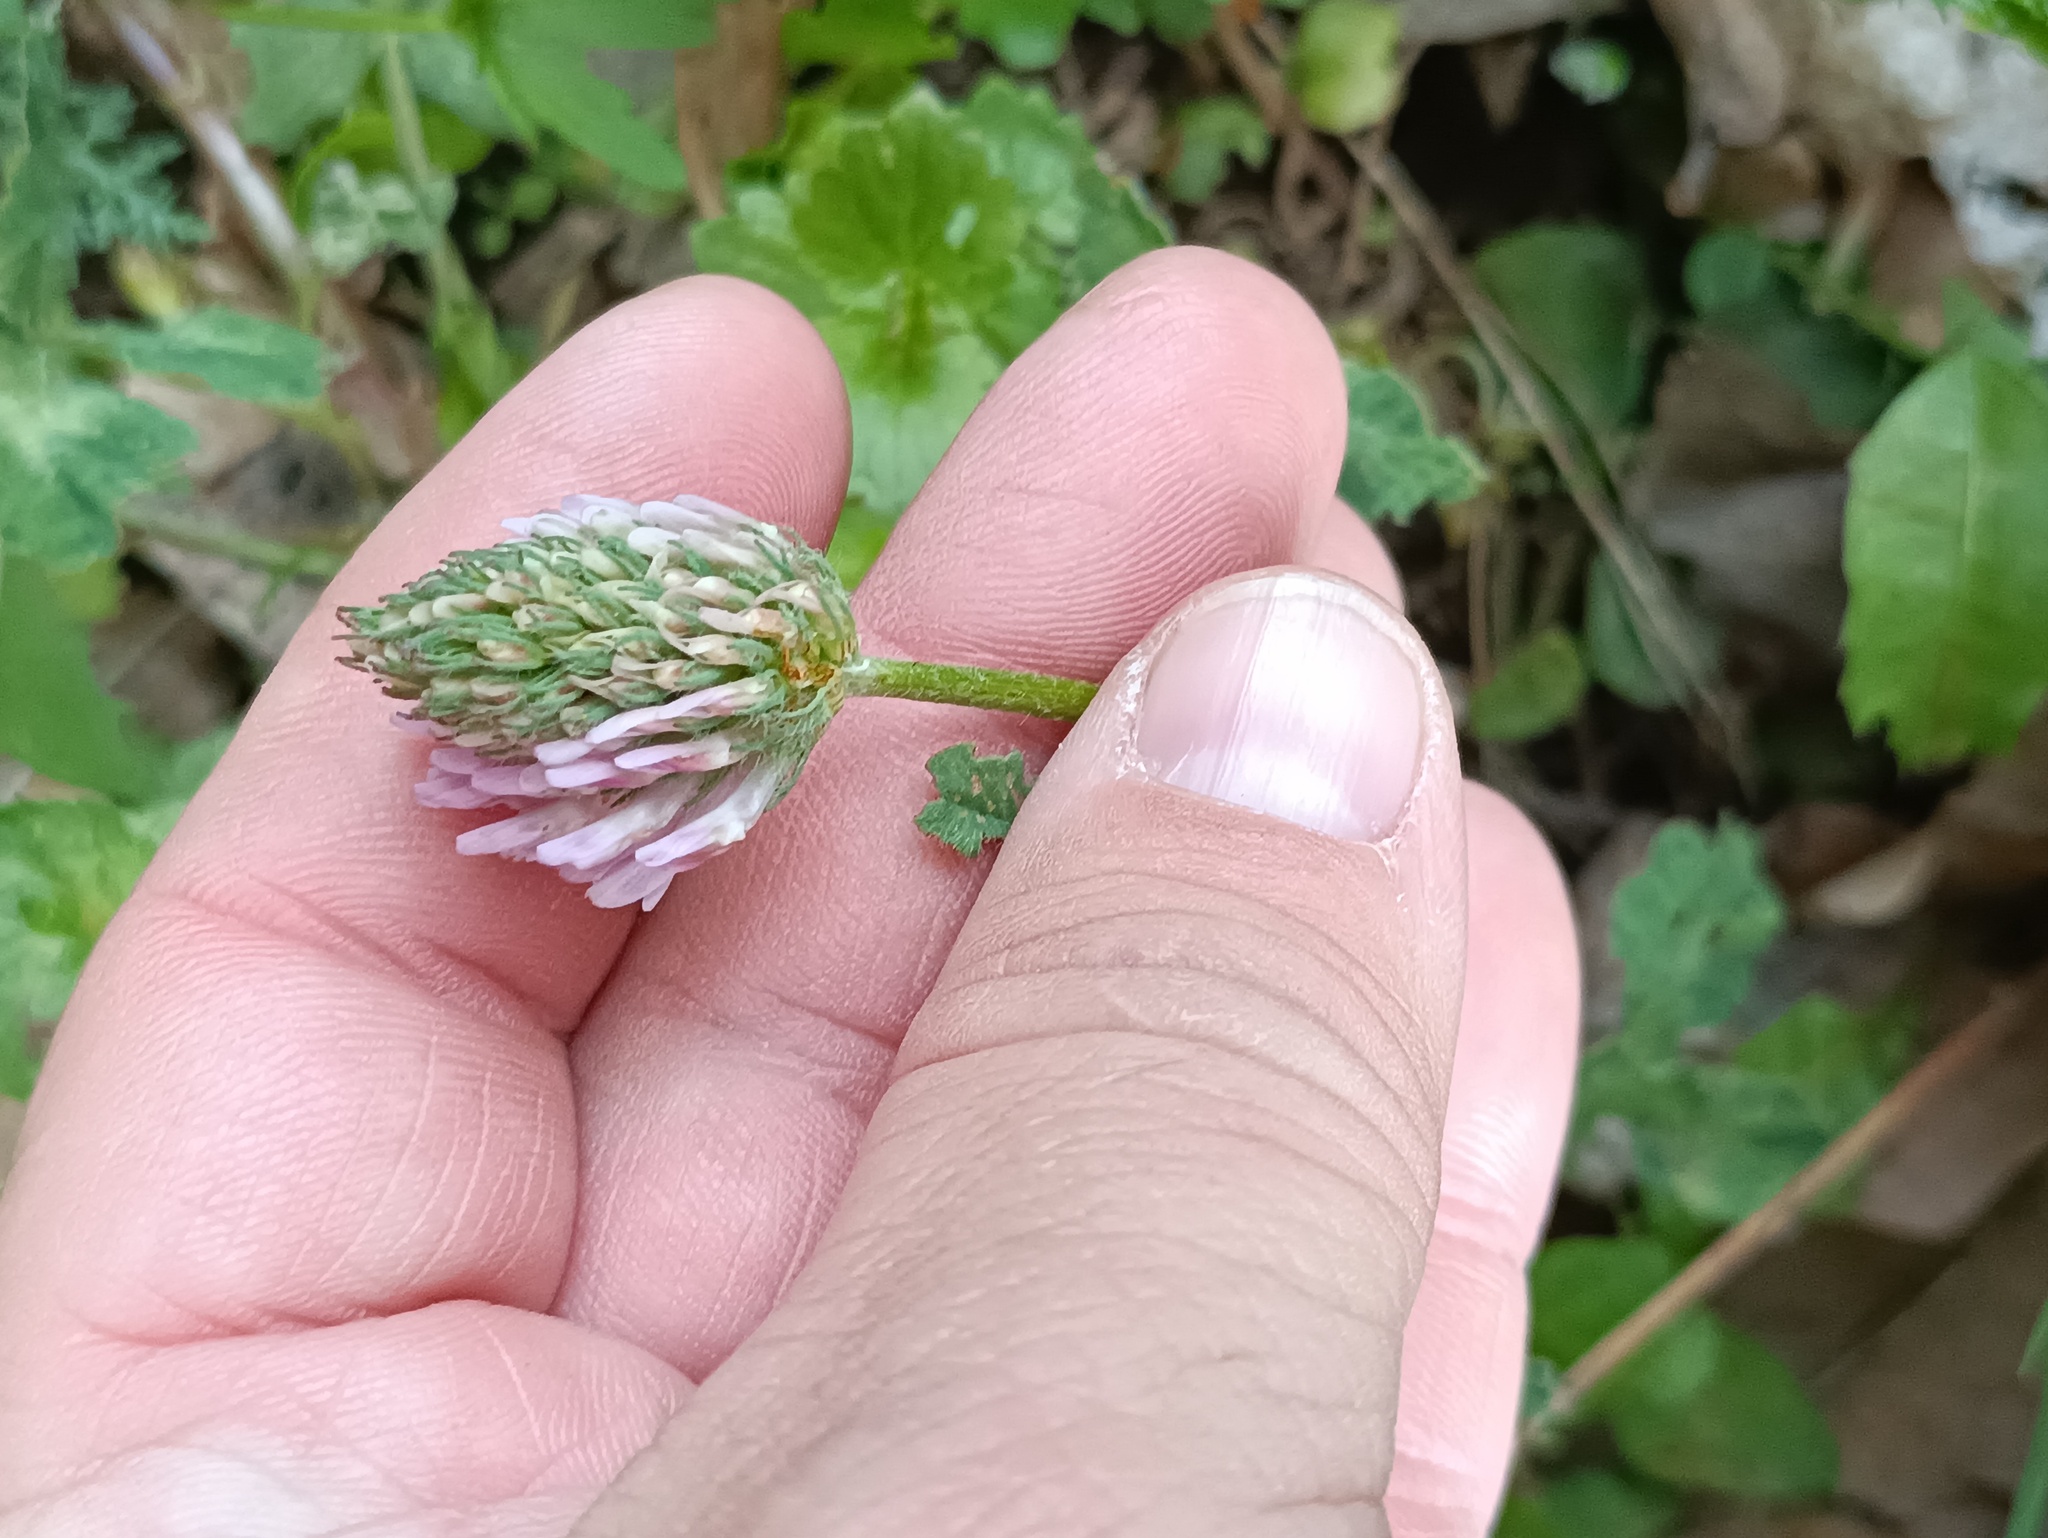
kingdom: Plantae
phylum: Tracheophyta
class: Magnoliopsida
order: Fabales
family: Fabaceae
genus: Trifolium
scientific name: Trifolium pratense
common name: Red clover
